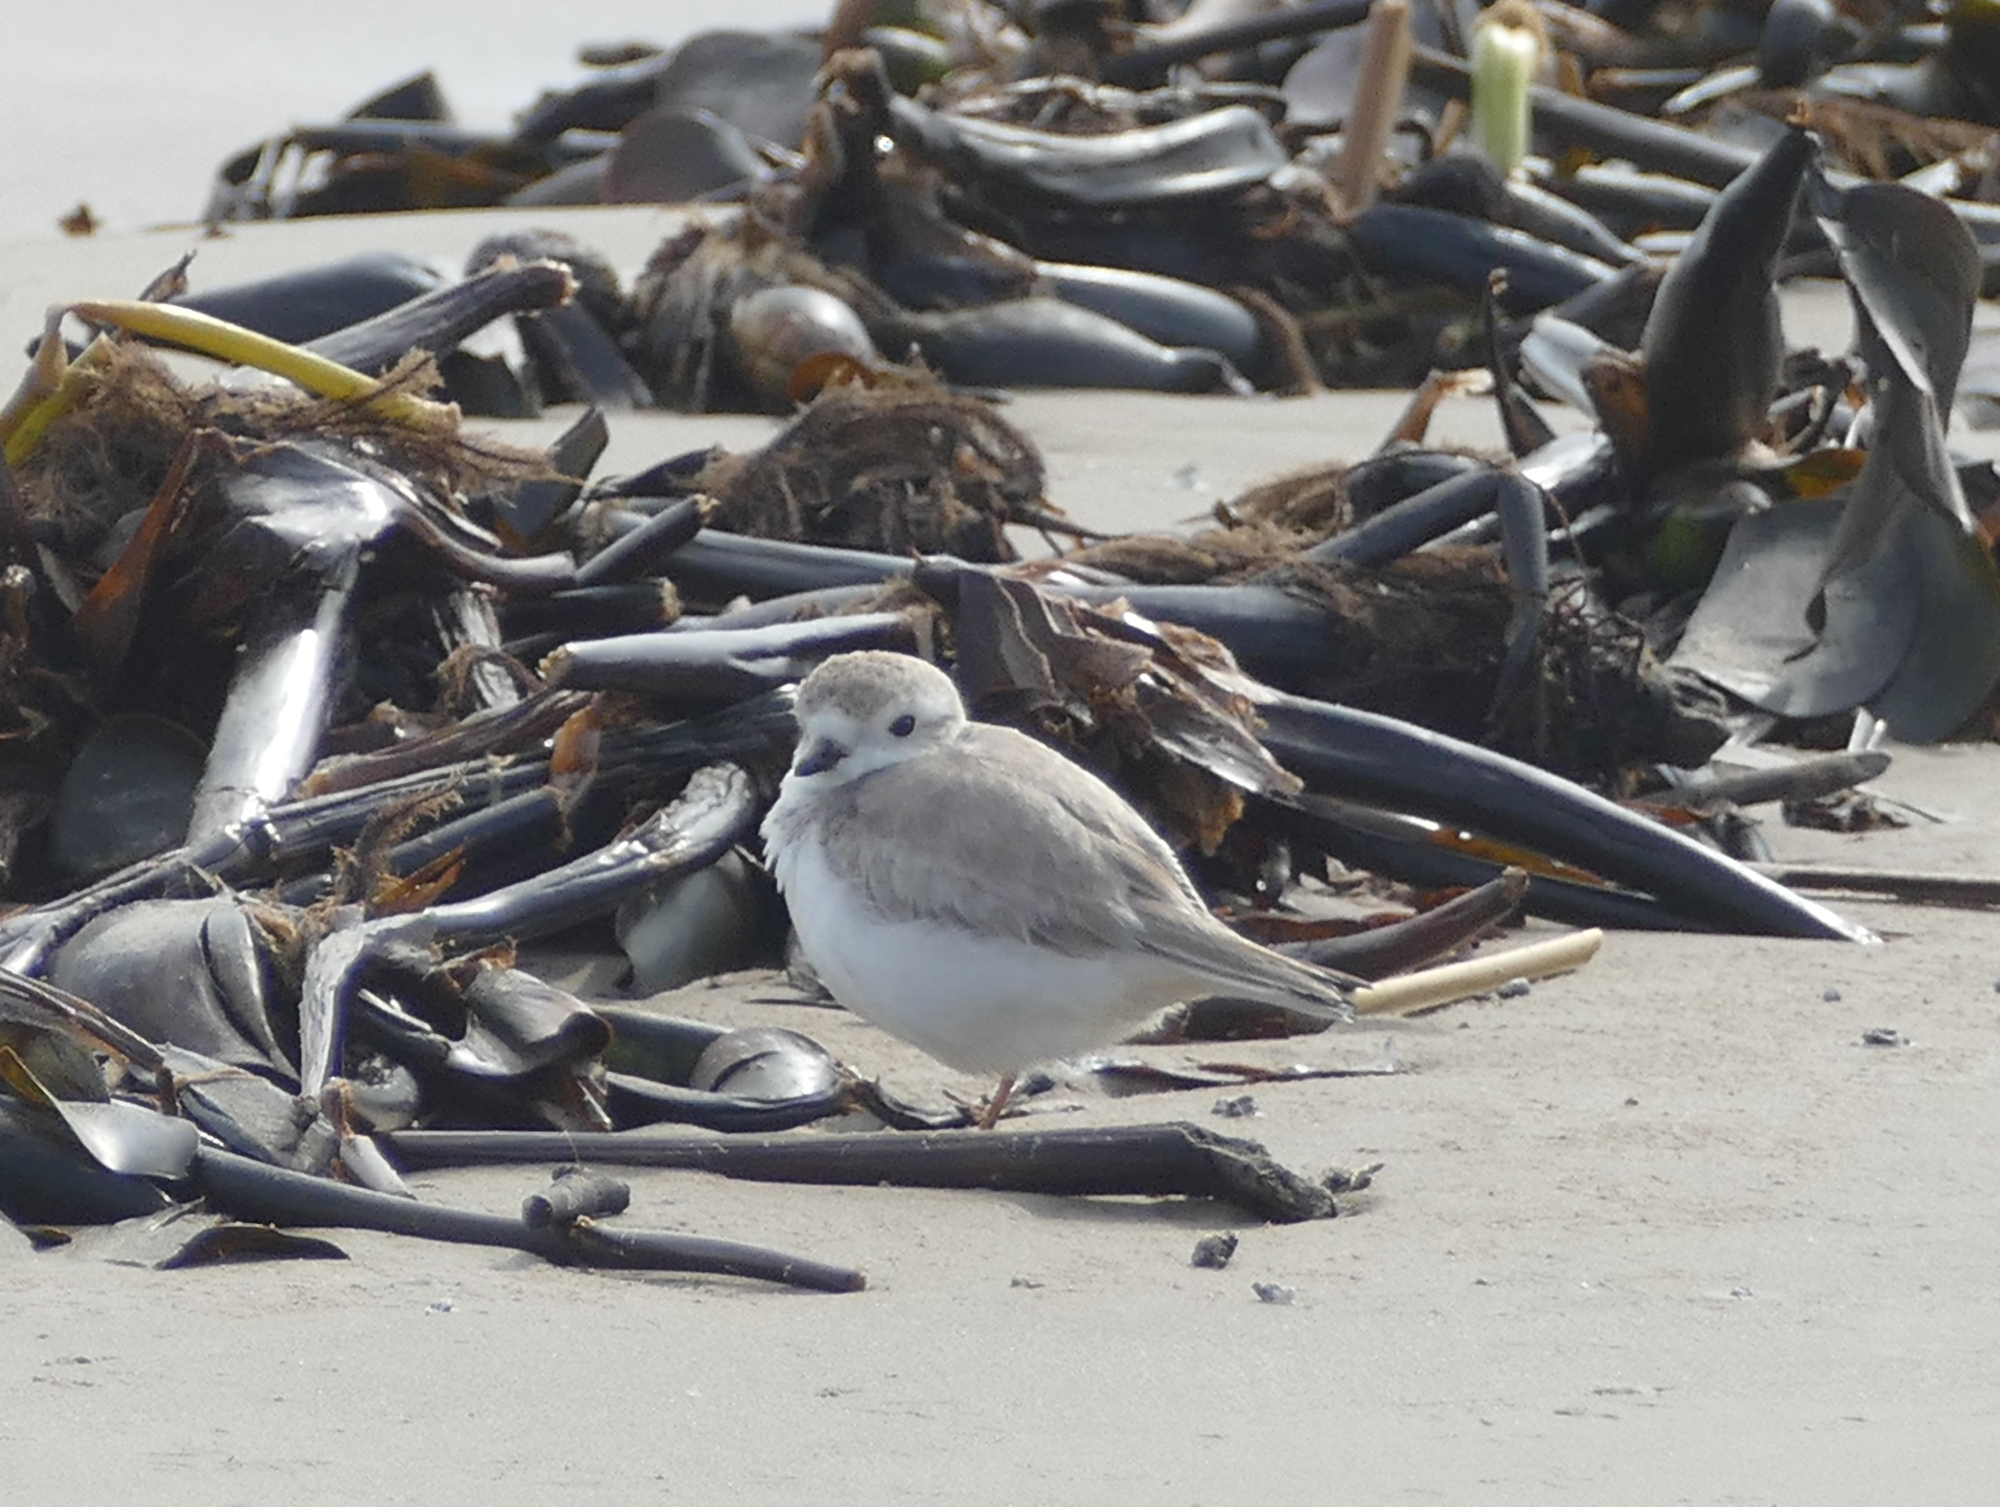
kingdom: Animalia
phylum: Chordata
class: Aves
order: Charadriiformes
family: Charadriidae
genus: Charadrius
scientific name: Charadrius melodus
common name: Piping plover
